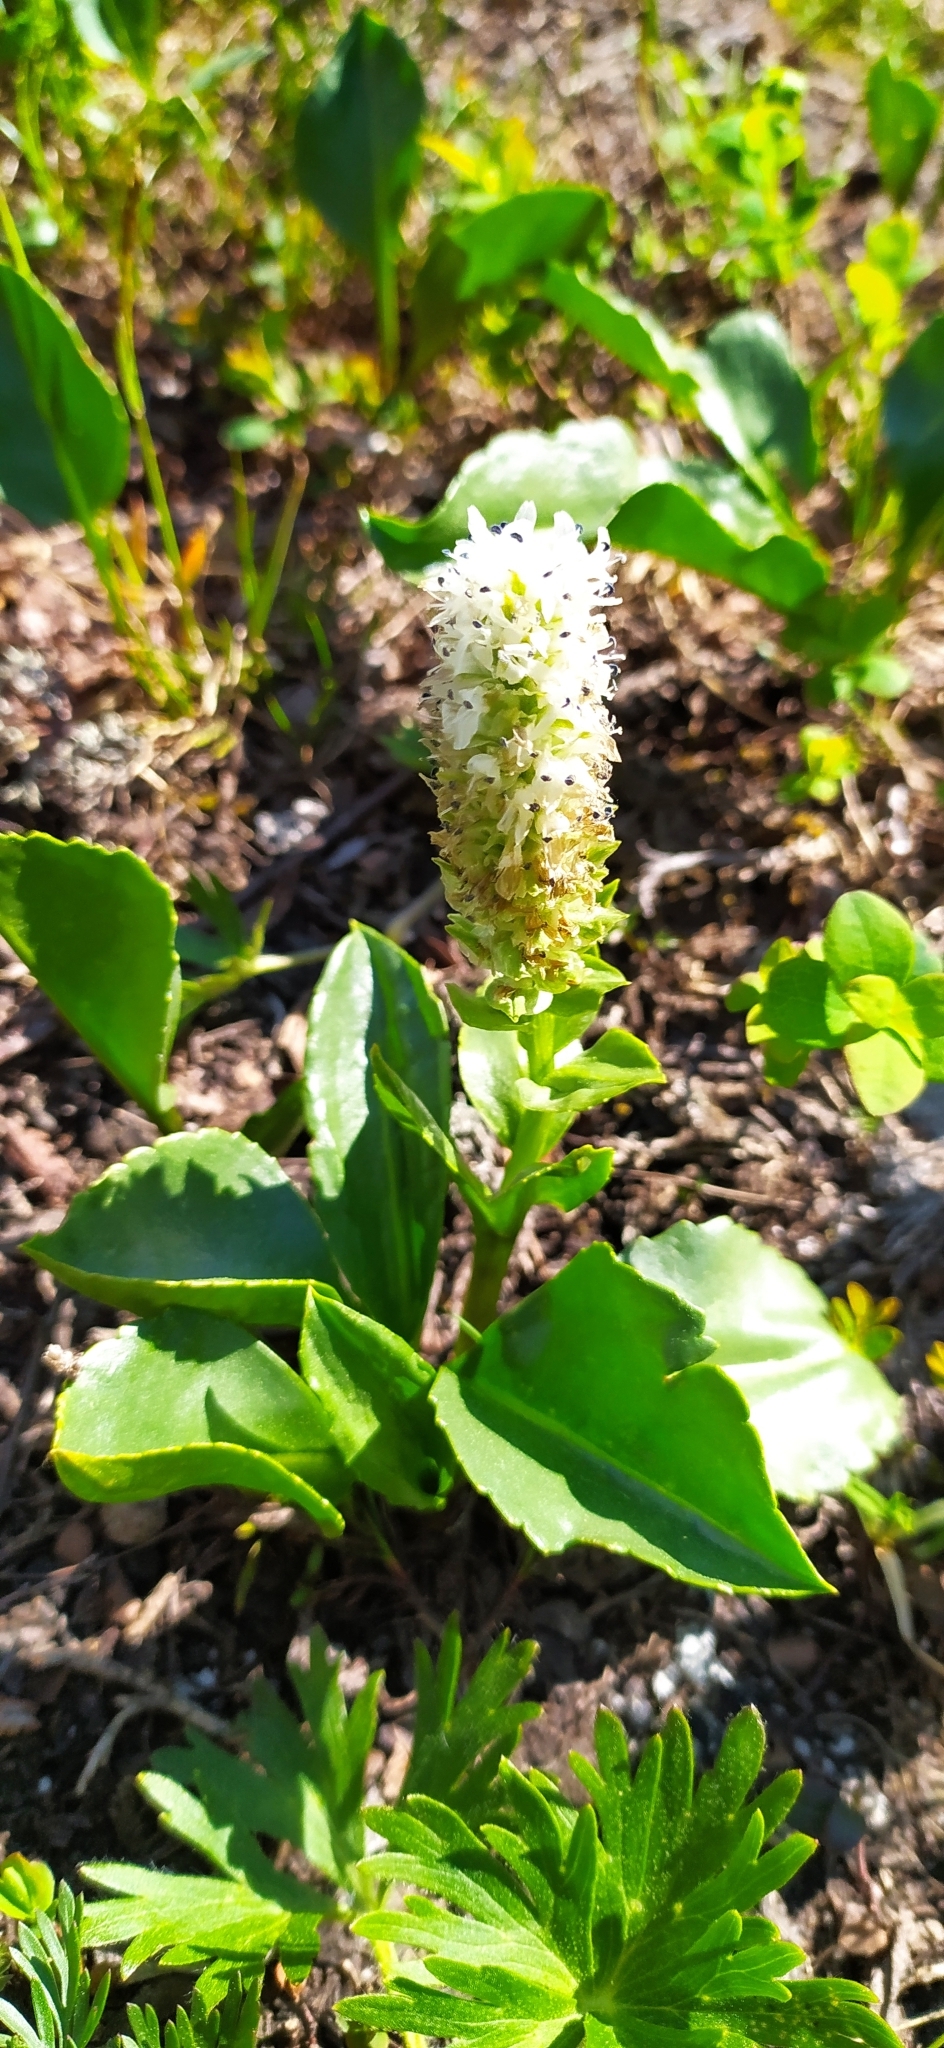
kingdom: Plantae
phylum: Tracheophyta
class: Magnoliopsida
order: Lamiales
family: Plantaginaceae
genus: Lagotis
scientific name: Lagotis uralensis
